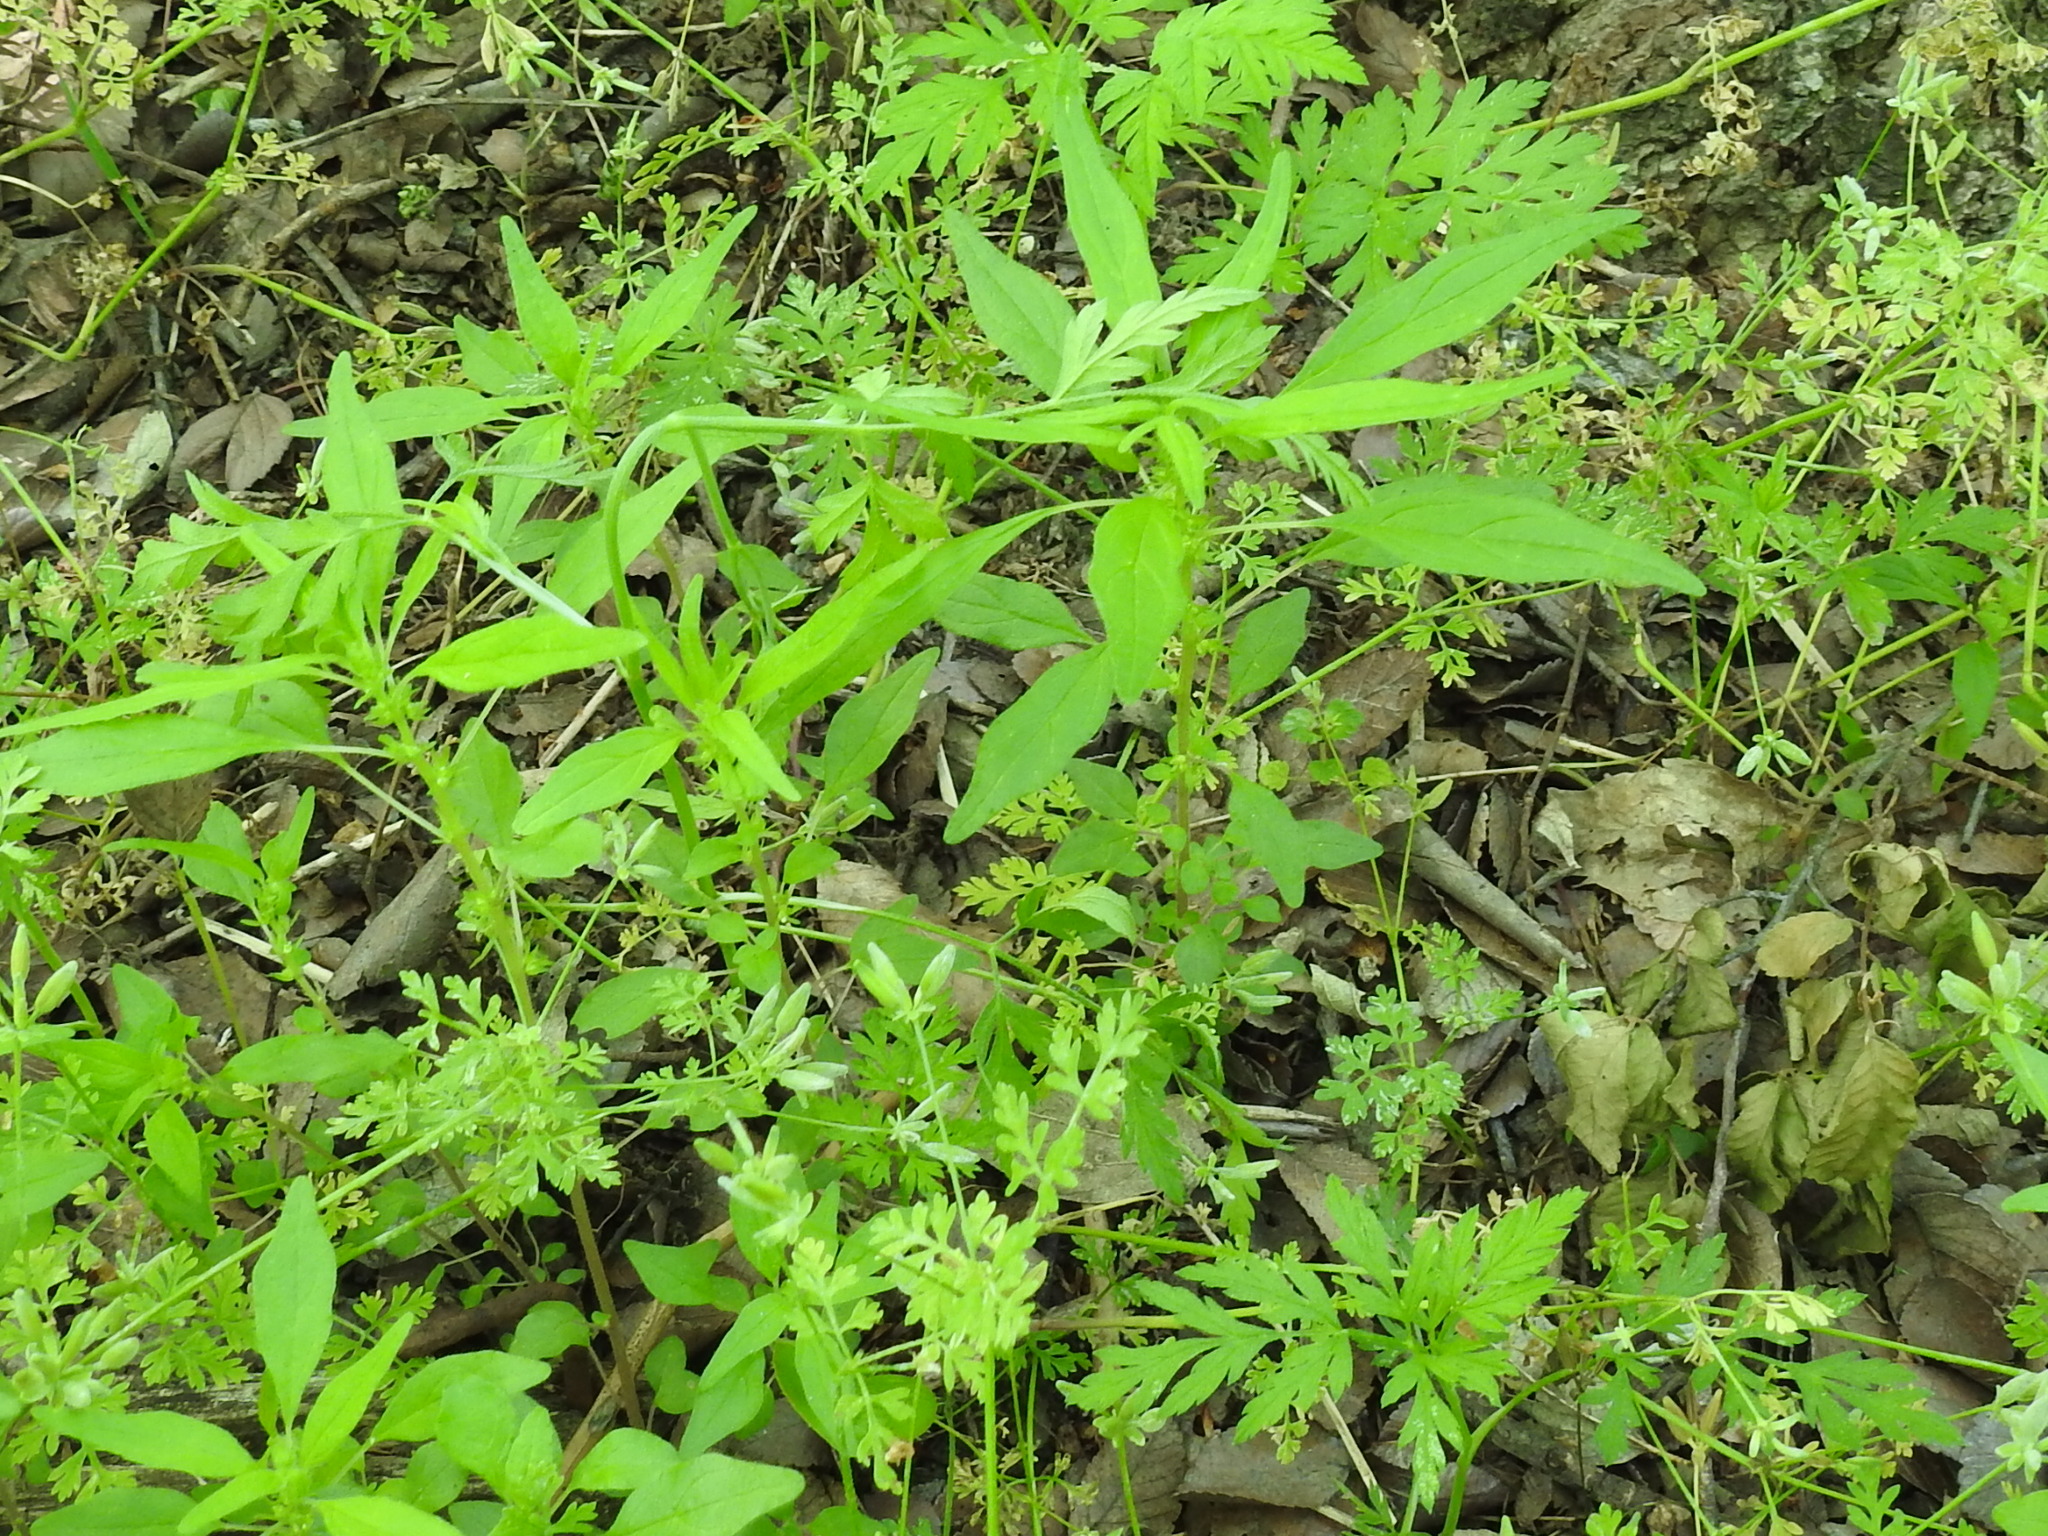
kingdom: Plantae
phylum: Tracheophyta
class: Magnoliopsida
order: Rosales
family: Urticaceae
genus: Parietaria
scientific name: Parietaria pensylvanica
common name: Pennsylvania pellitory
